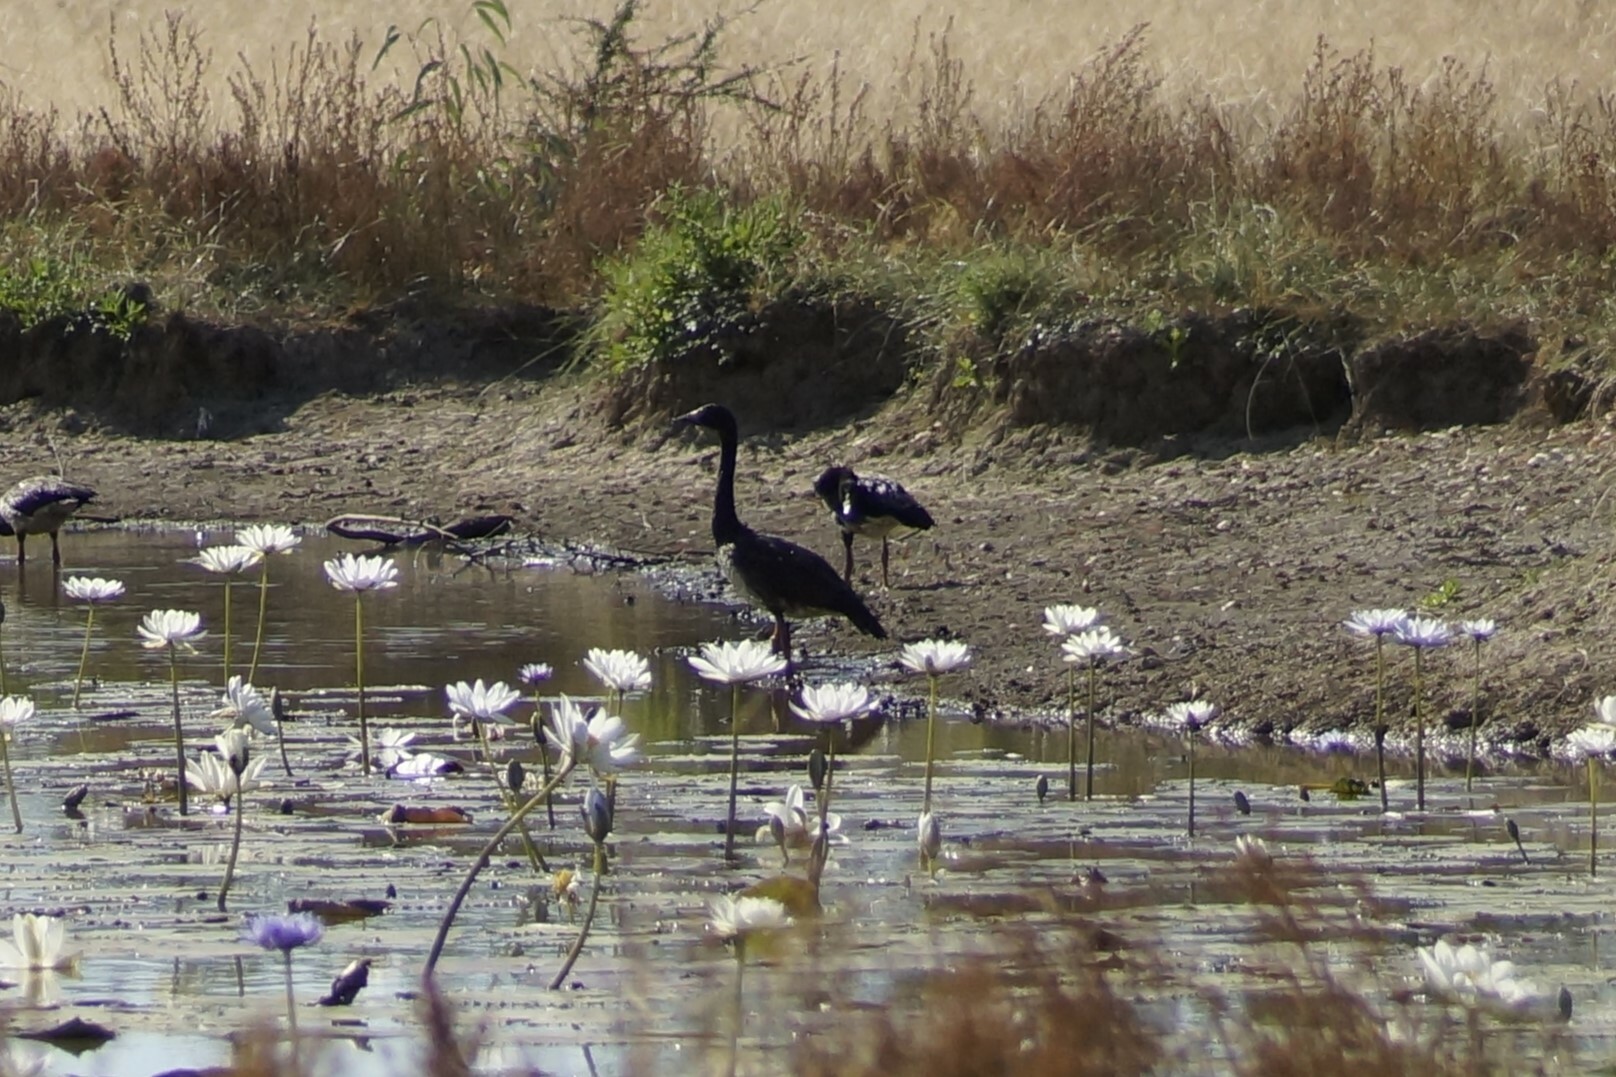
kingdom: Animalia
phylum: Chordata
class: Aves
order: Anseriformes
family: Anseranatidae
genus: Anseranas
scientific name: Anseranas semipalmata
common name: Magpie goose
